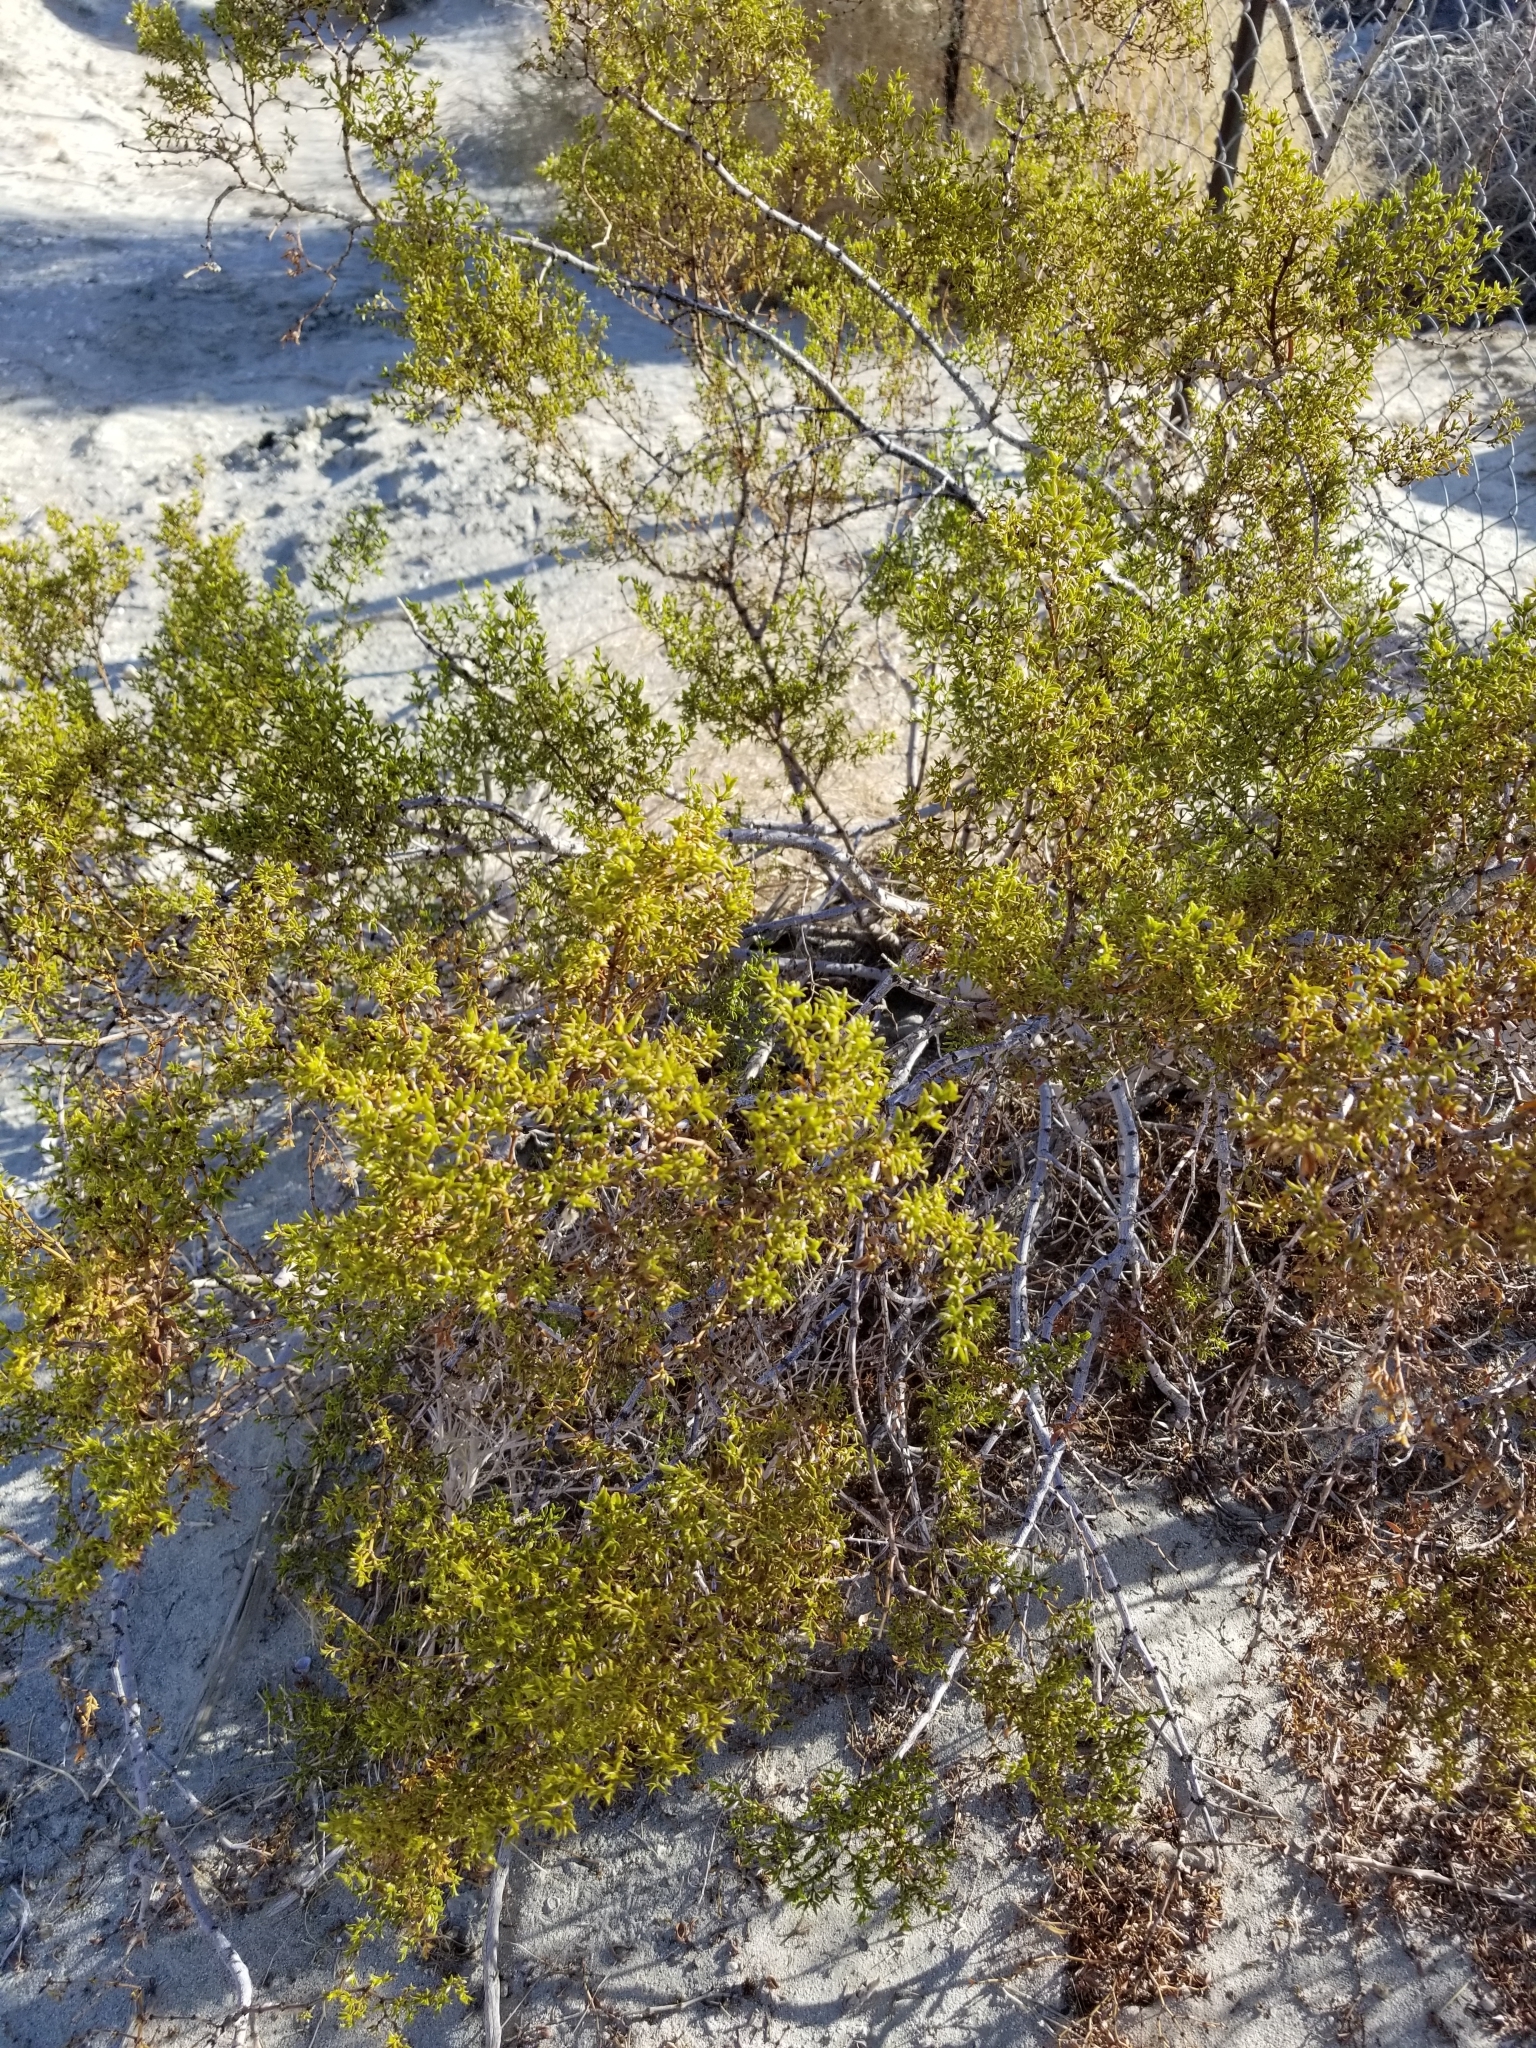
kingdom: Plantae
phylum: Tracheophyta
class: Magnoliopsida
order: Zygophyllales
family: Zygophyllaceae
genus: Larrea
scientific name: Larrea tridentata
